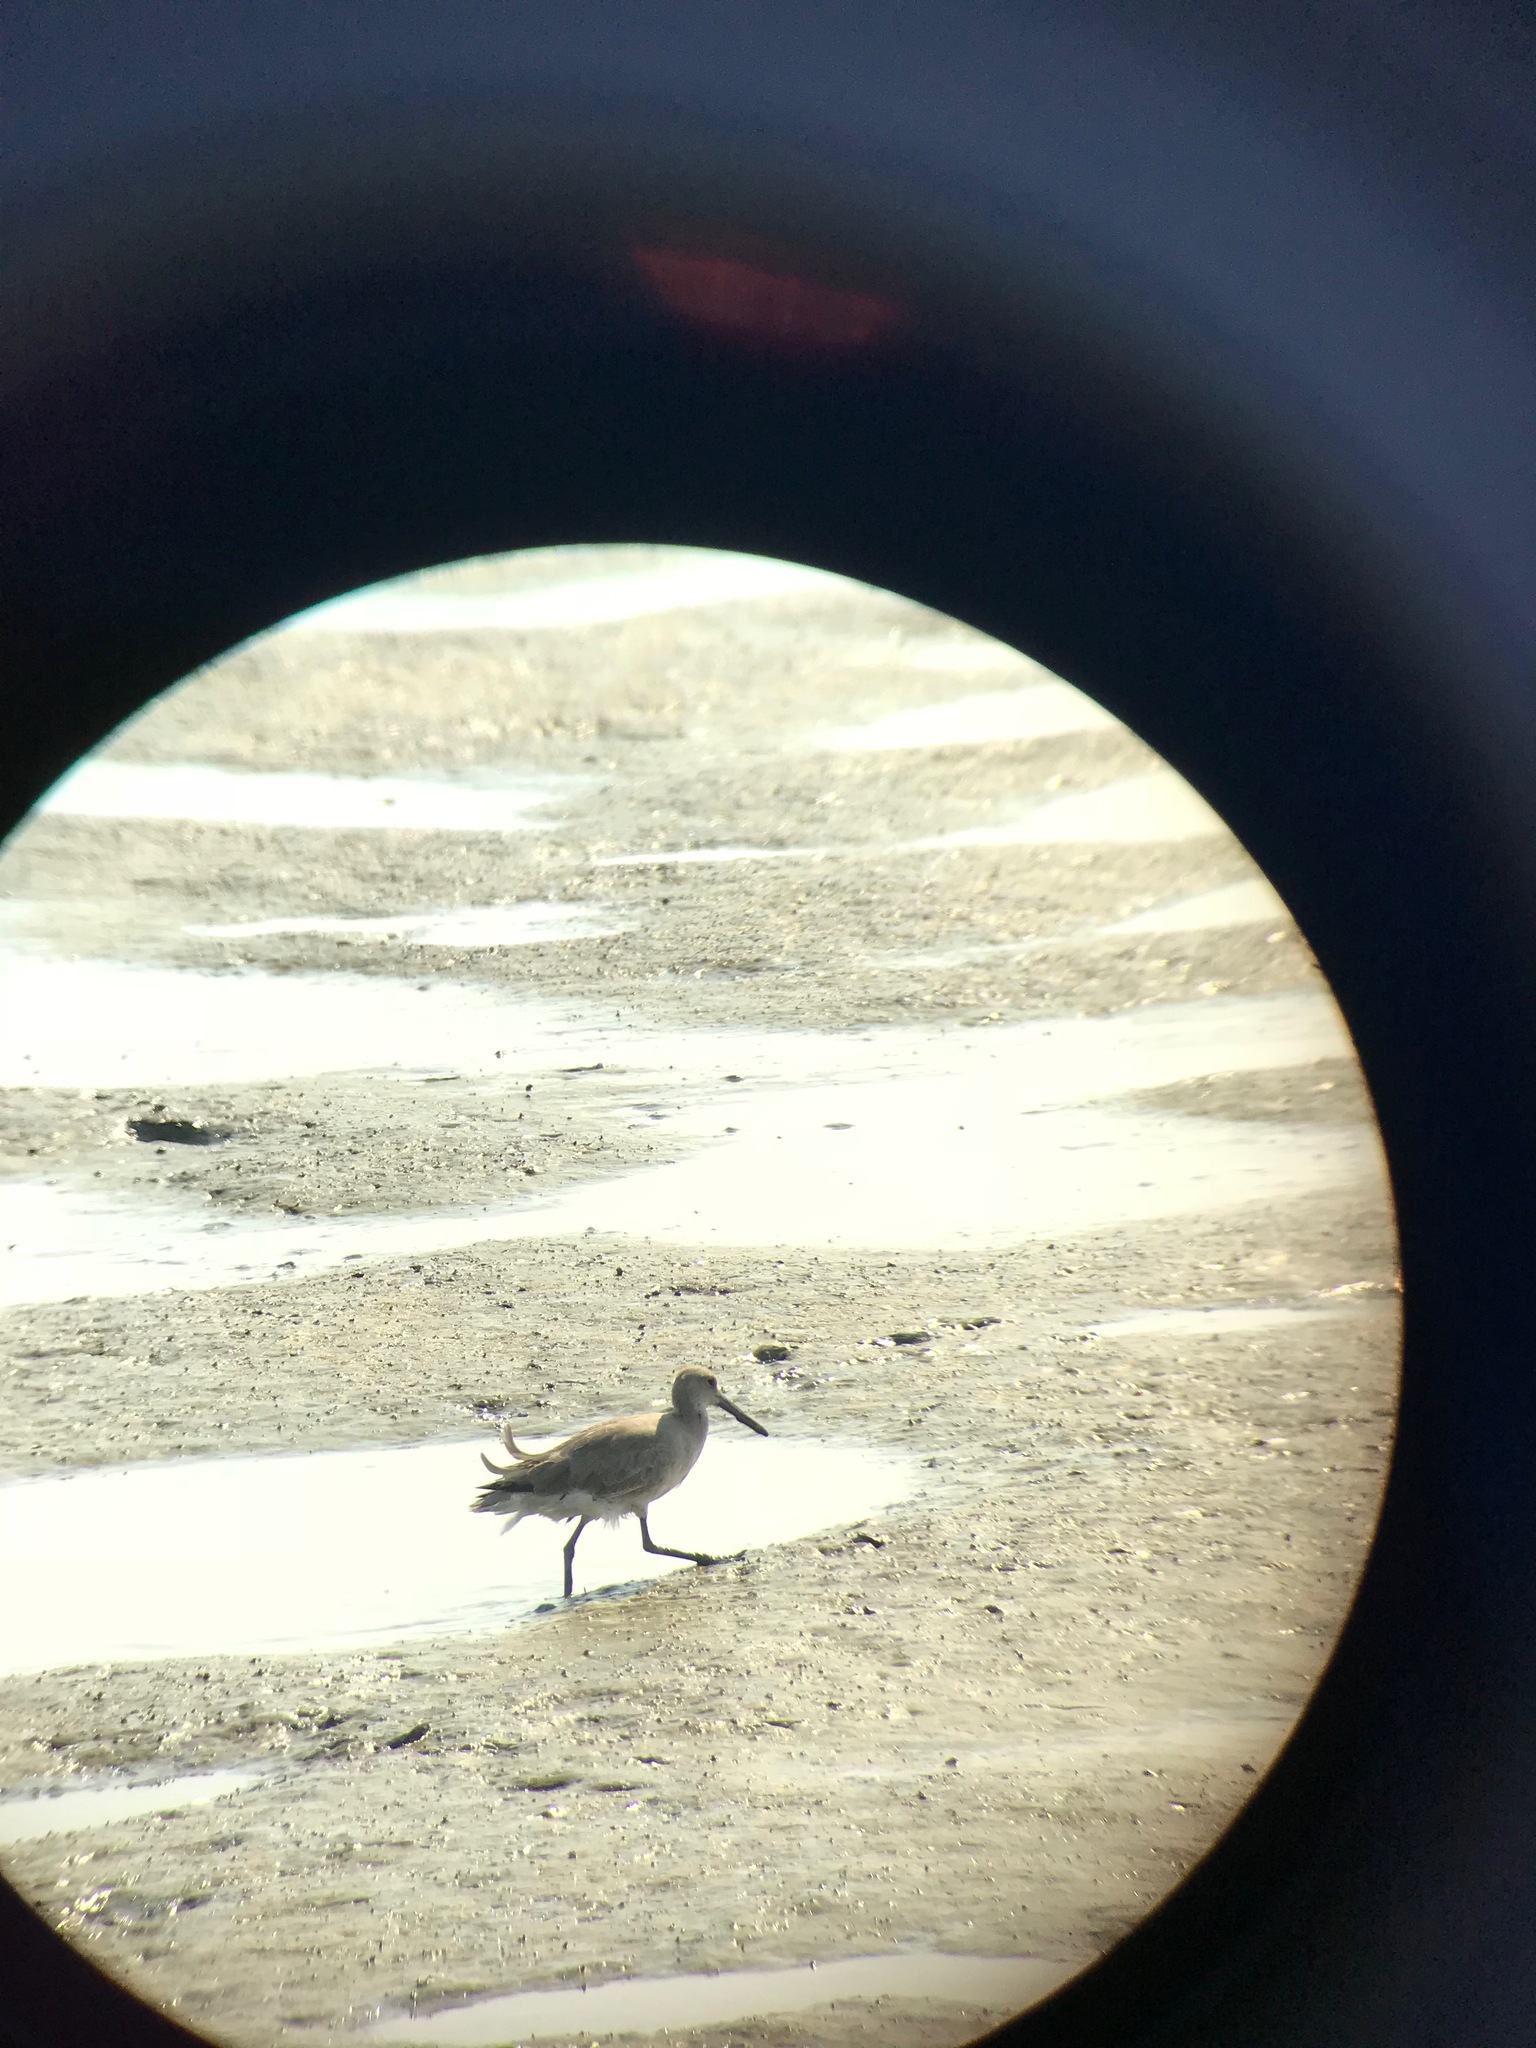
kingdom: Animalia
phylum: Chordata
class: Aves
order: Charadriiformes
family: Scolopacidae
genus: Tringa
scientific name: Tringa semipalmata
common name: Willet
